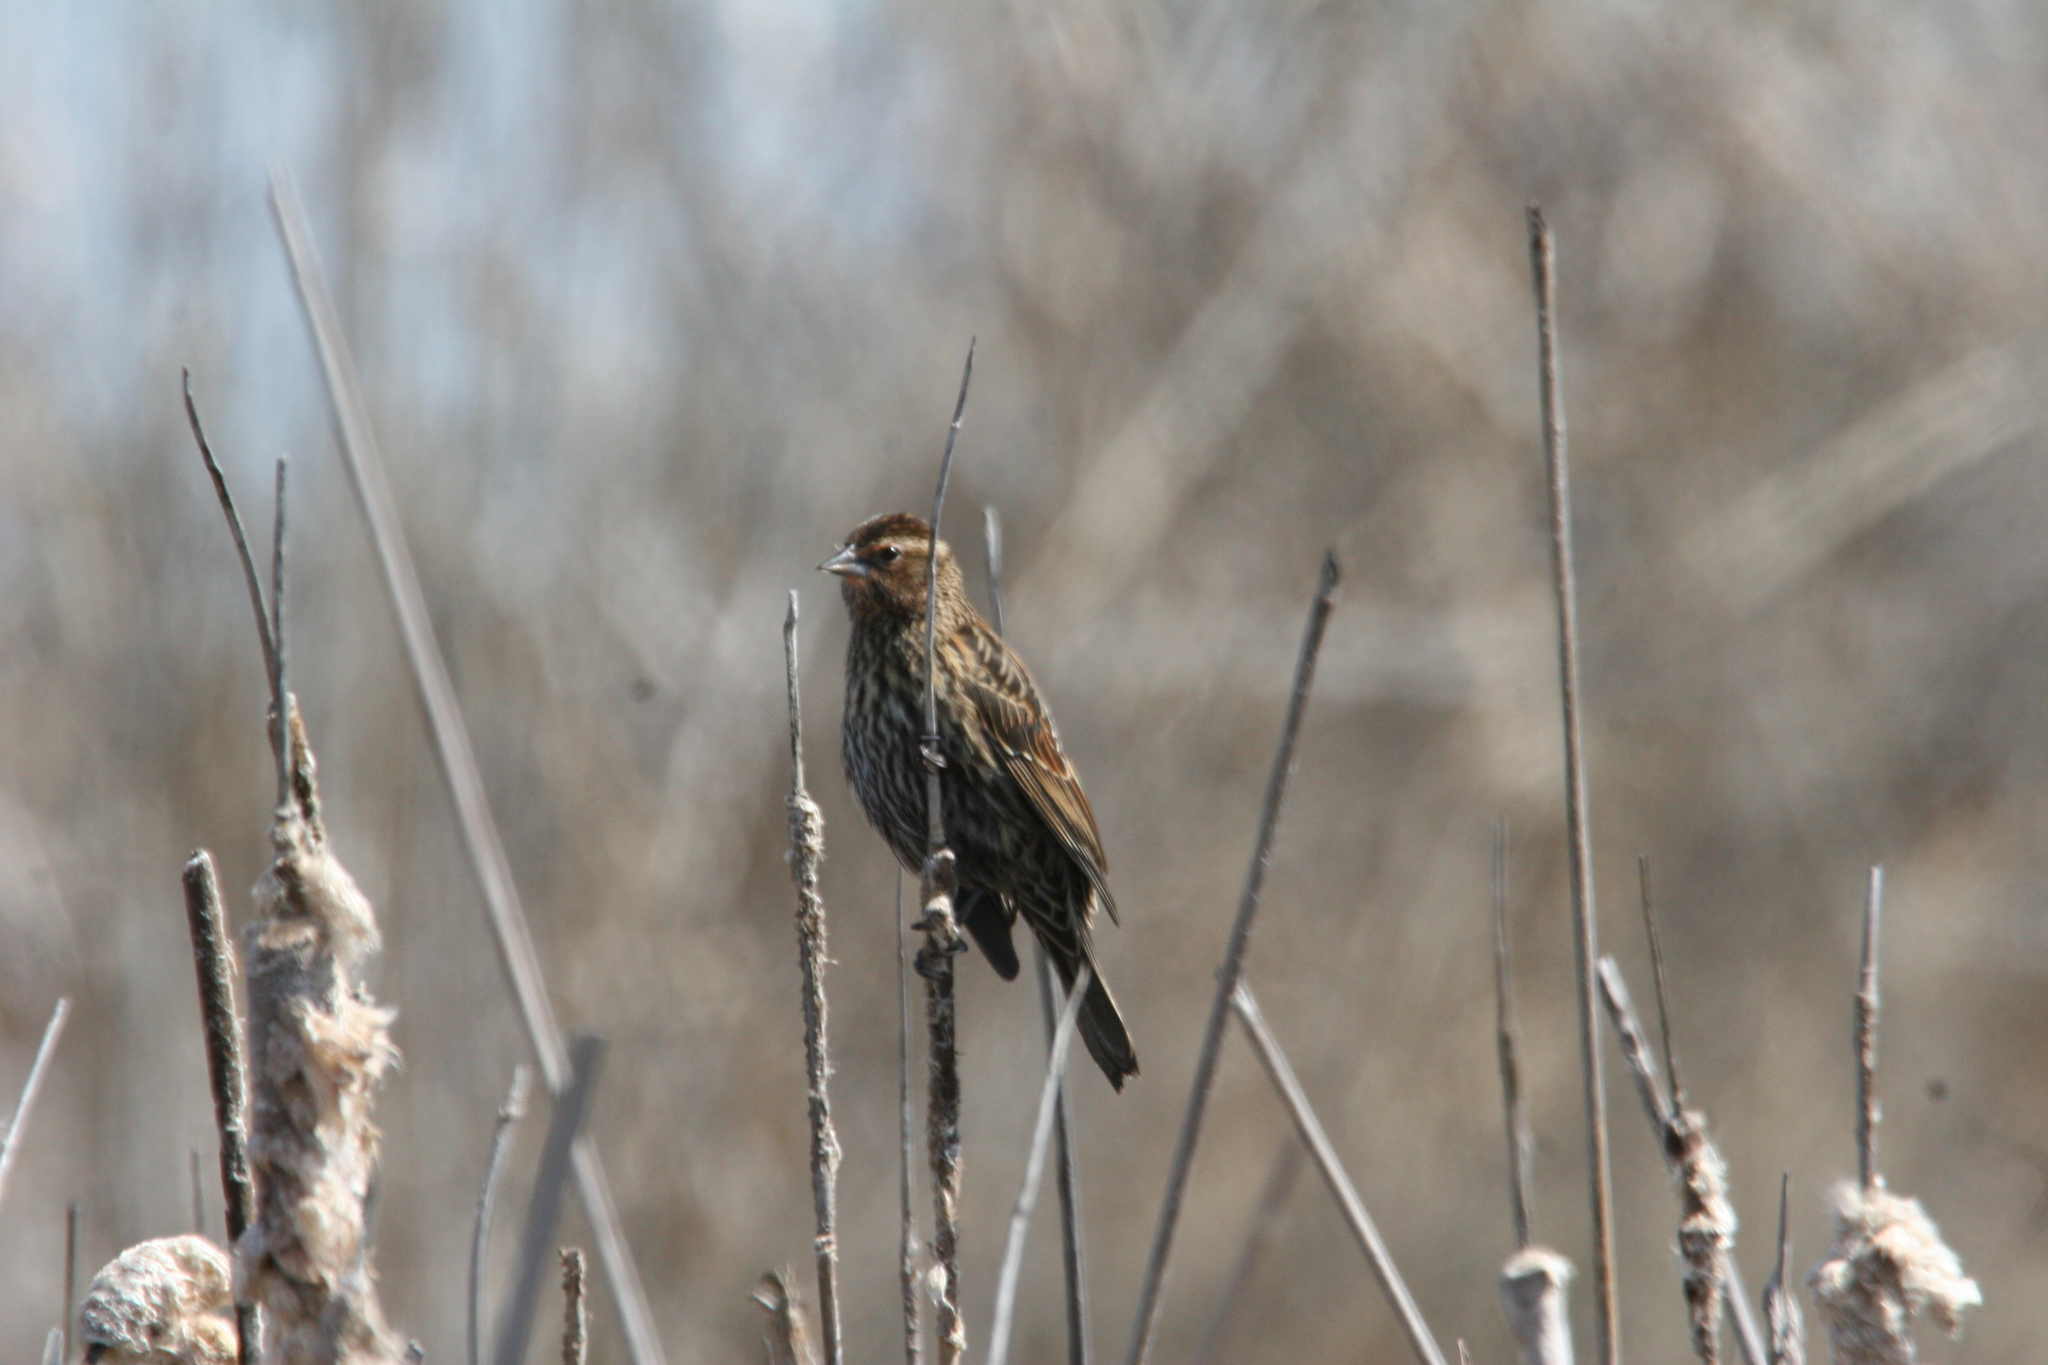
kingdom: Animalia
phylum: Chordata
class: Aves
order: Passeriformes
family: Icteridae
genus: Agelaius
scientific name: Agelaius phoeniceus
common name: Red-winged blackbird
